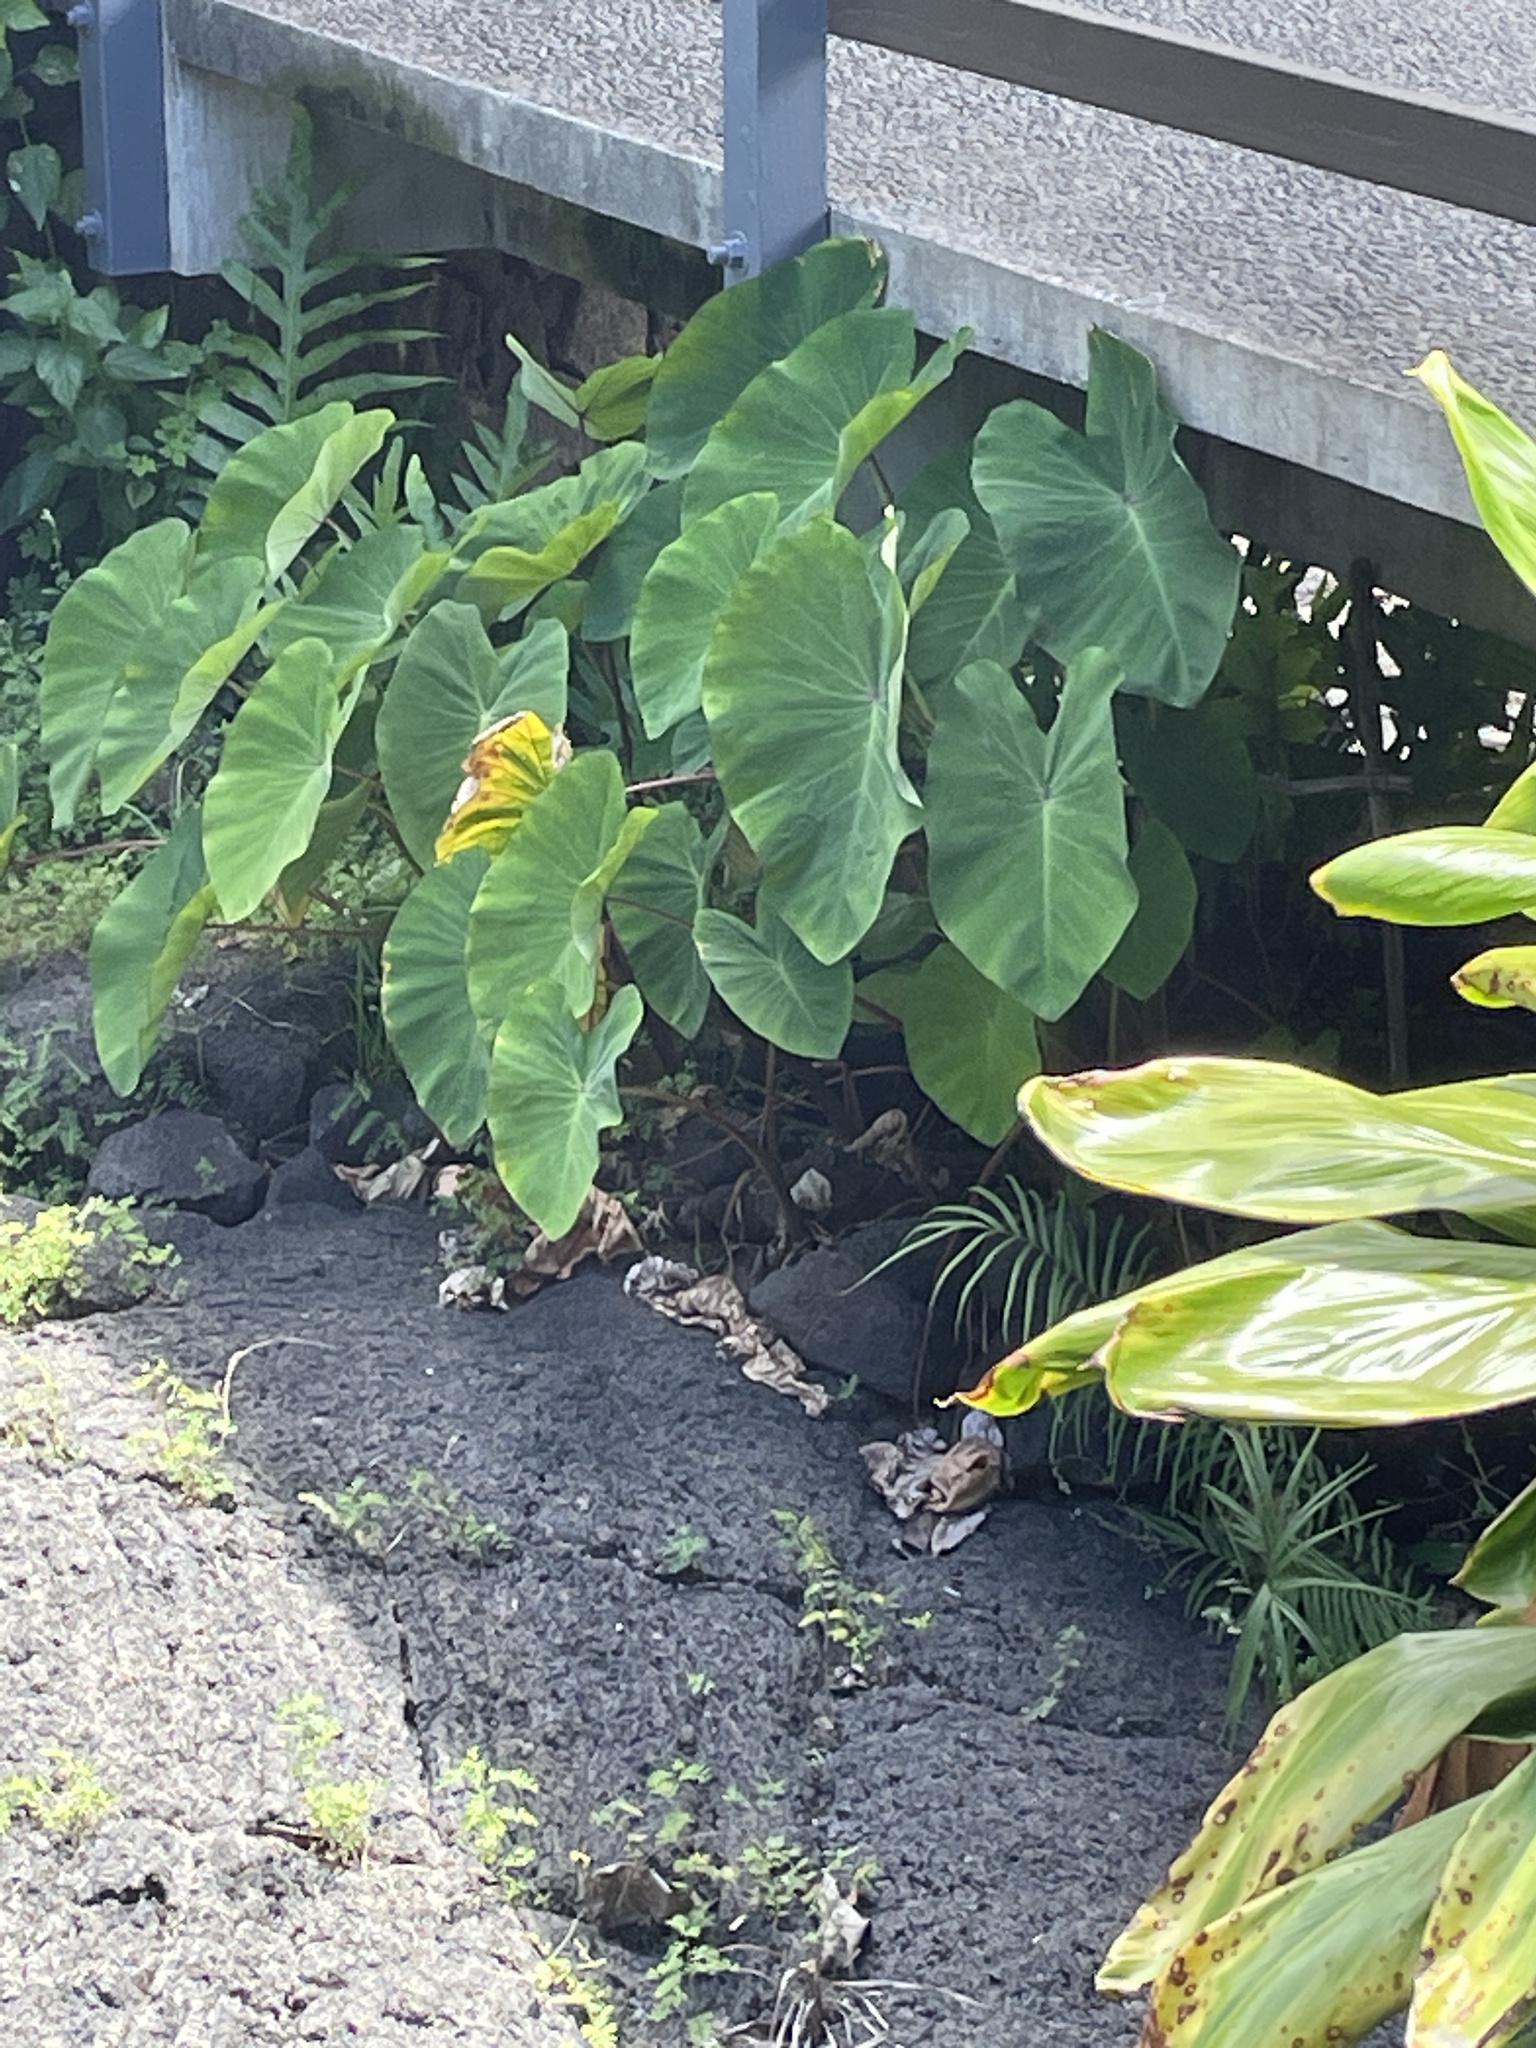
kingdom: Plantae
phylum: Tracheophyta
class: Liliopsida
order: Alismatales
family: Araceae
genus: Colocasia
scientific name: Colocasia esculenta
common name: Taro
